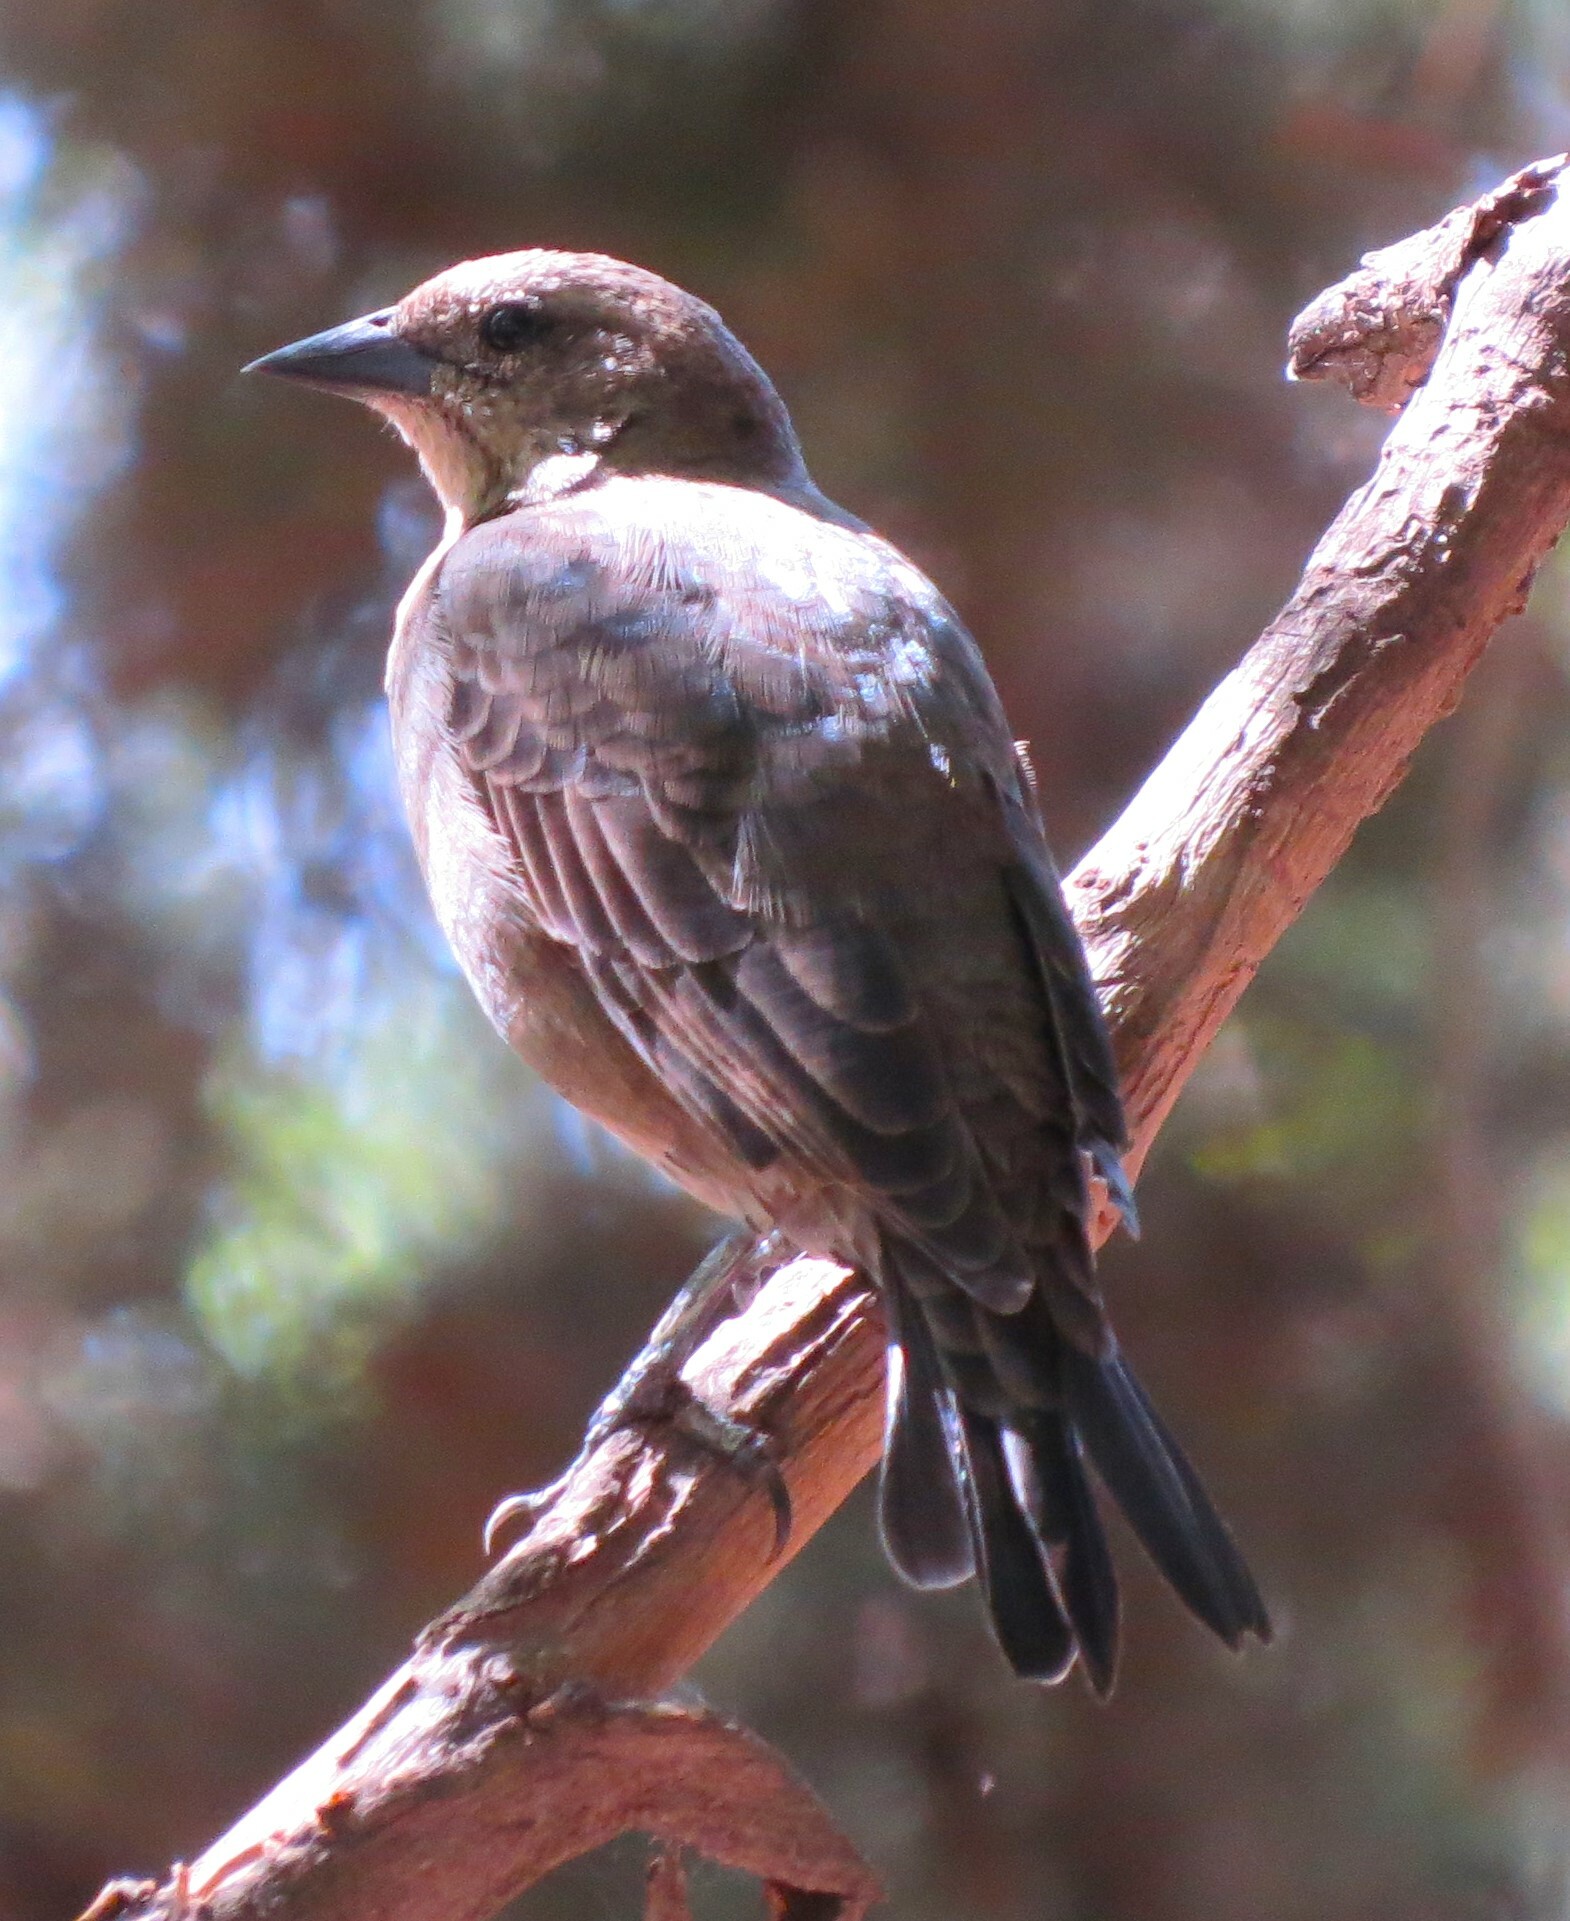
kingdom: Animalia
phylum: Chordata
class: Aves
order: Passeriformes
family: Icteridae
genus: Molothrus
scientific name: Molothrus bonariensis
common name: Shiny cowbird
